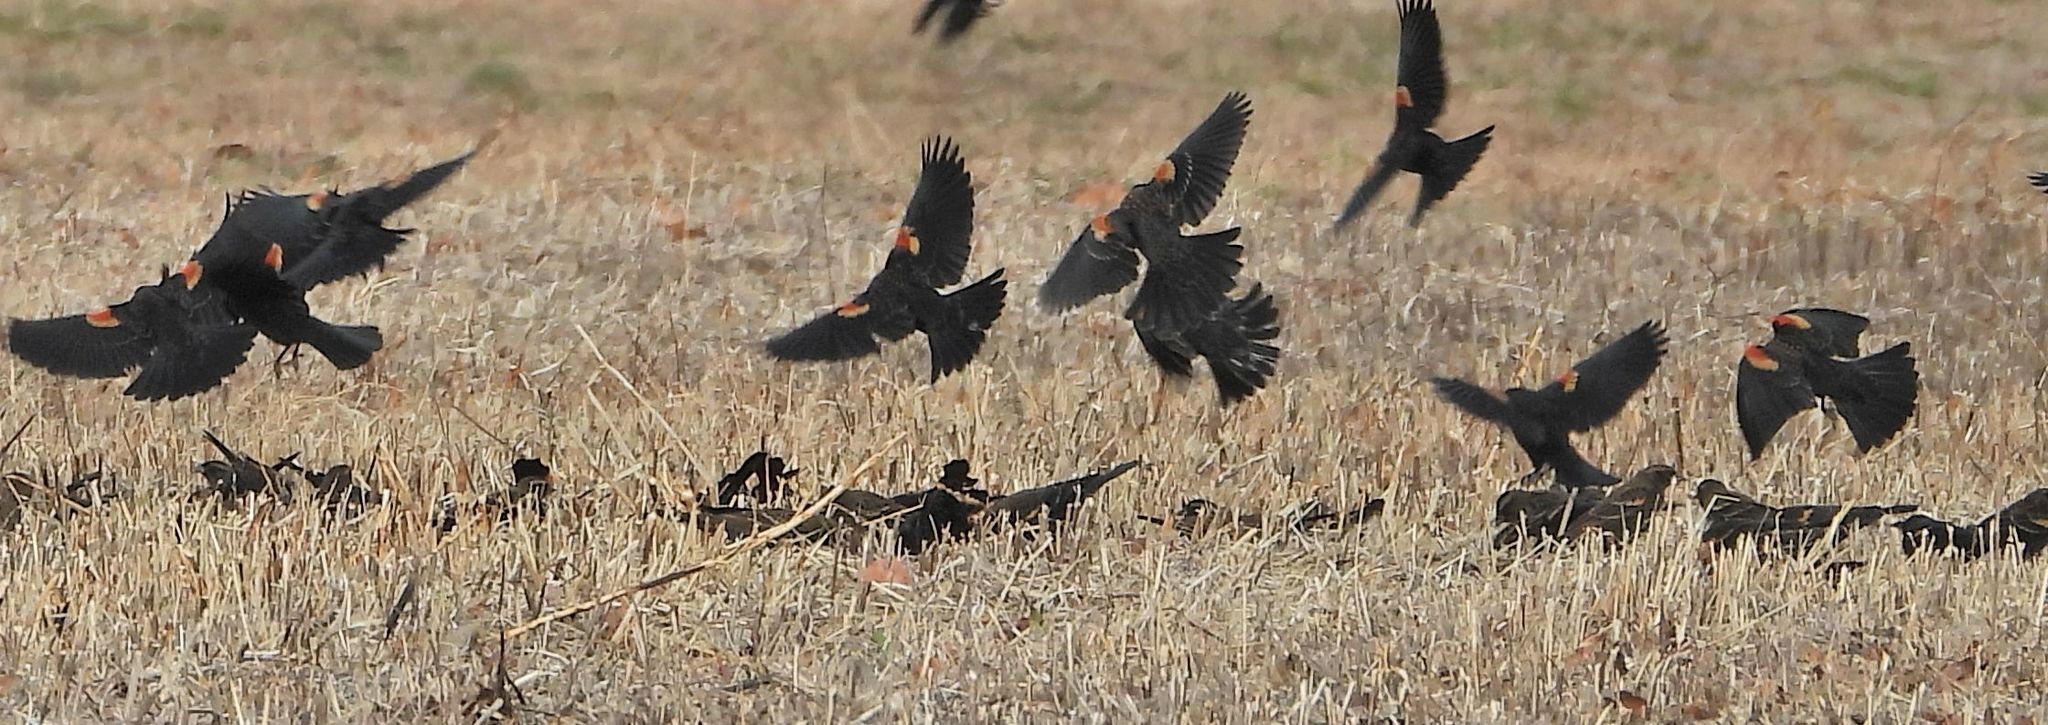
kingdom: Animalia
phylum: Chordata
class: Aves
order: Passeriformes
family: Icteridae
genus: Agelaius
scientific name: Agelaius phoeniceus
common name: Red-winged blackbird
